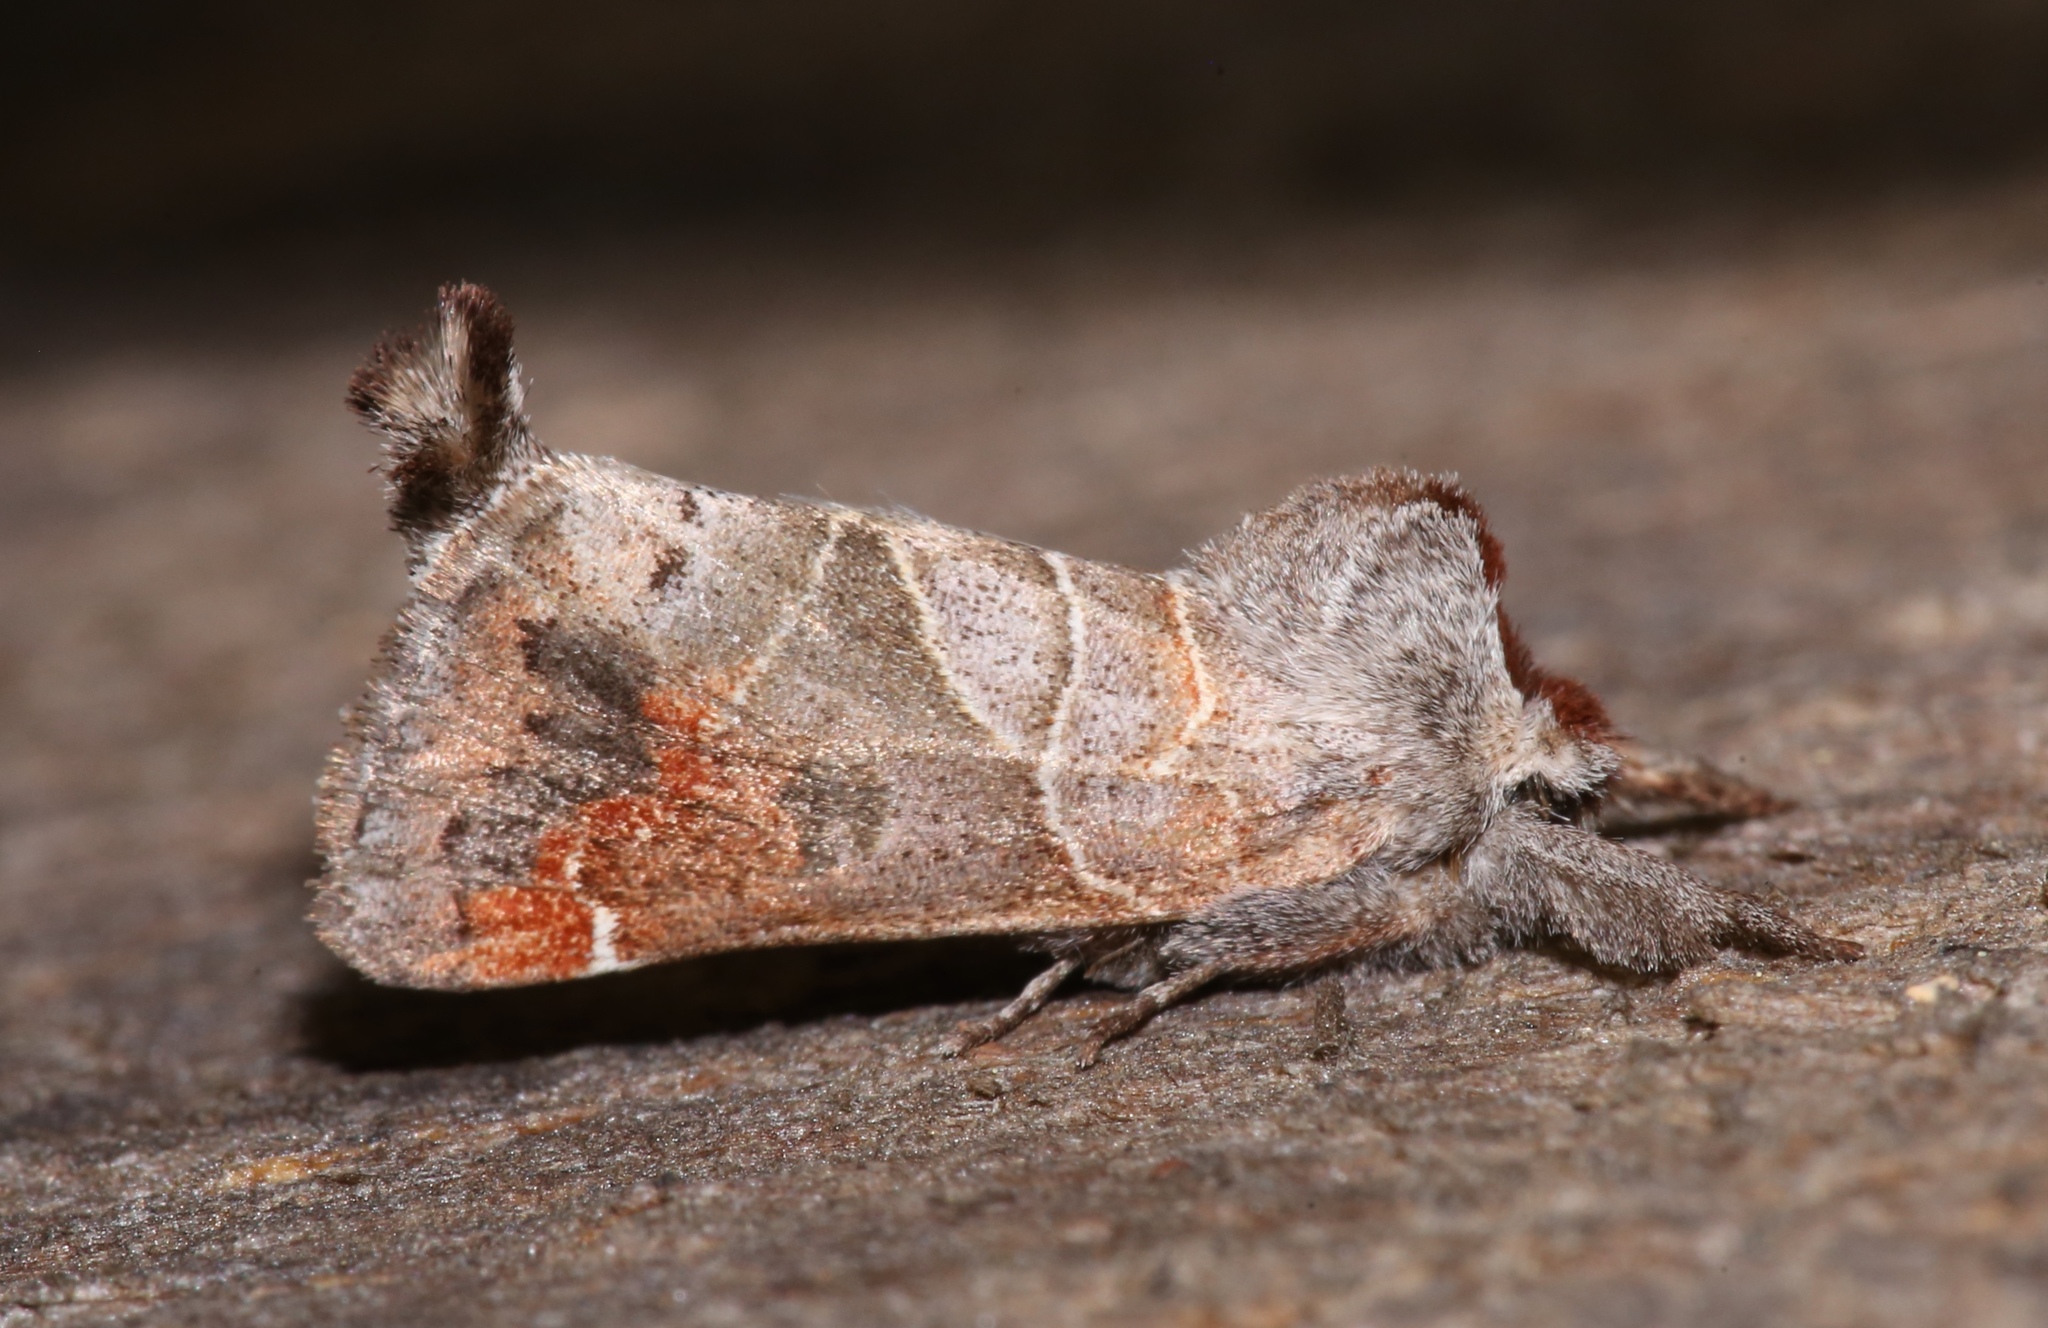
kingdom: Animalia
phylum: Arthropoda
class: Insecta
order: Lepidoptera
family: Notodontidae
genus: Clostera
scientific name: Clostera apicalis
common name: Apical prominent
